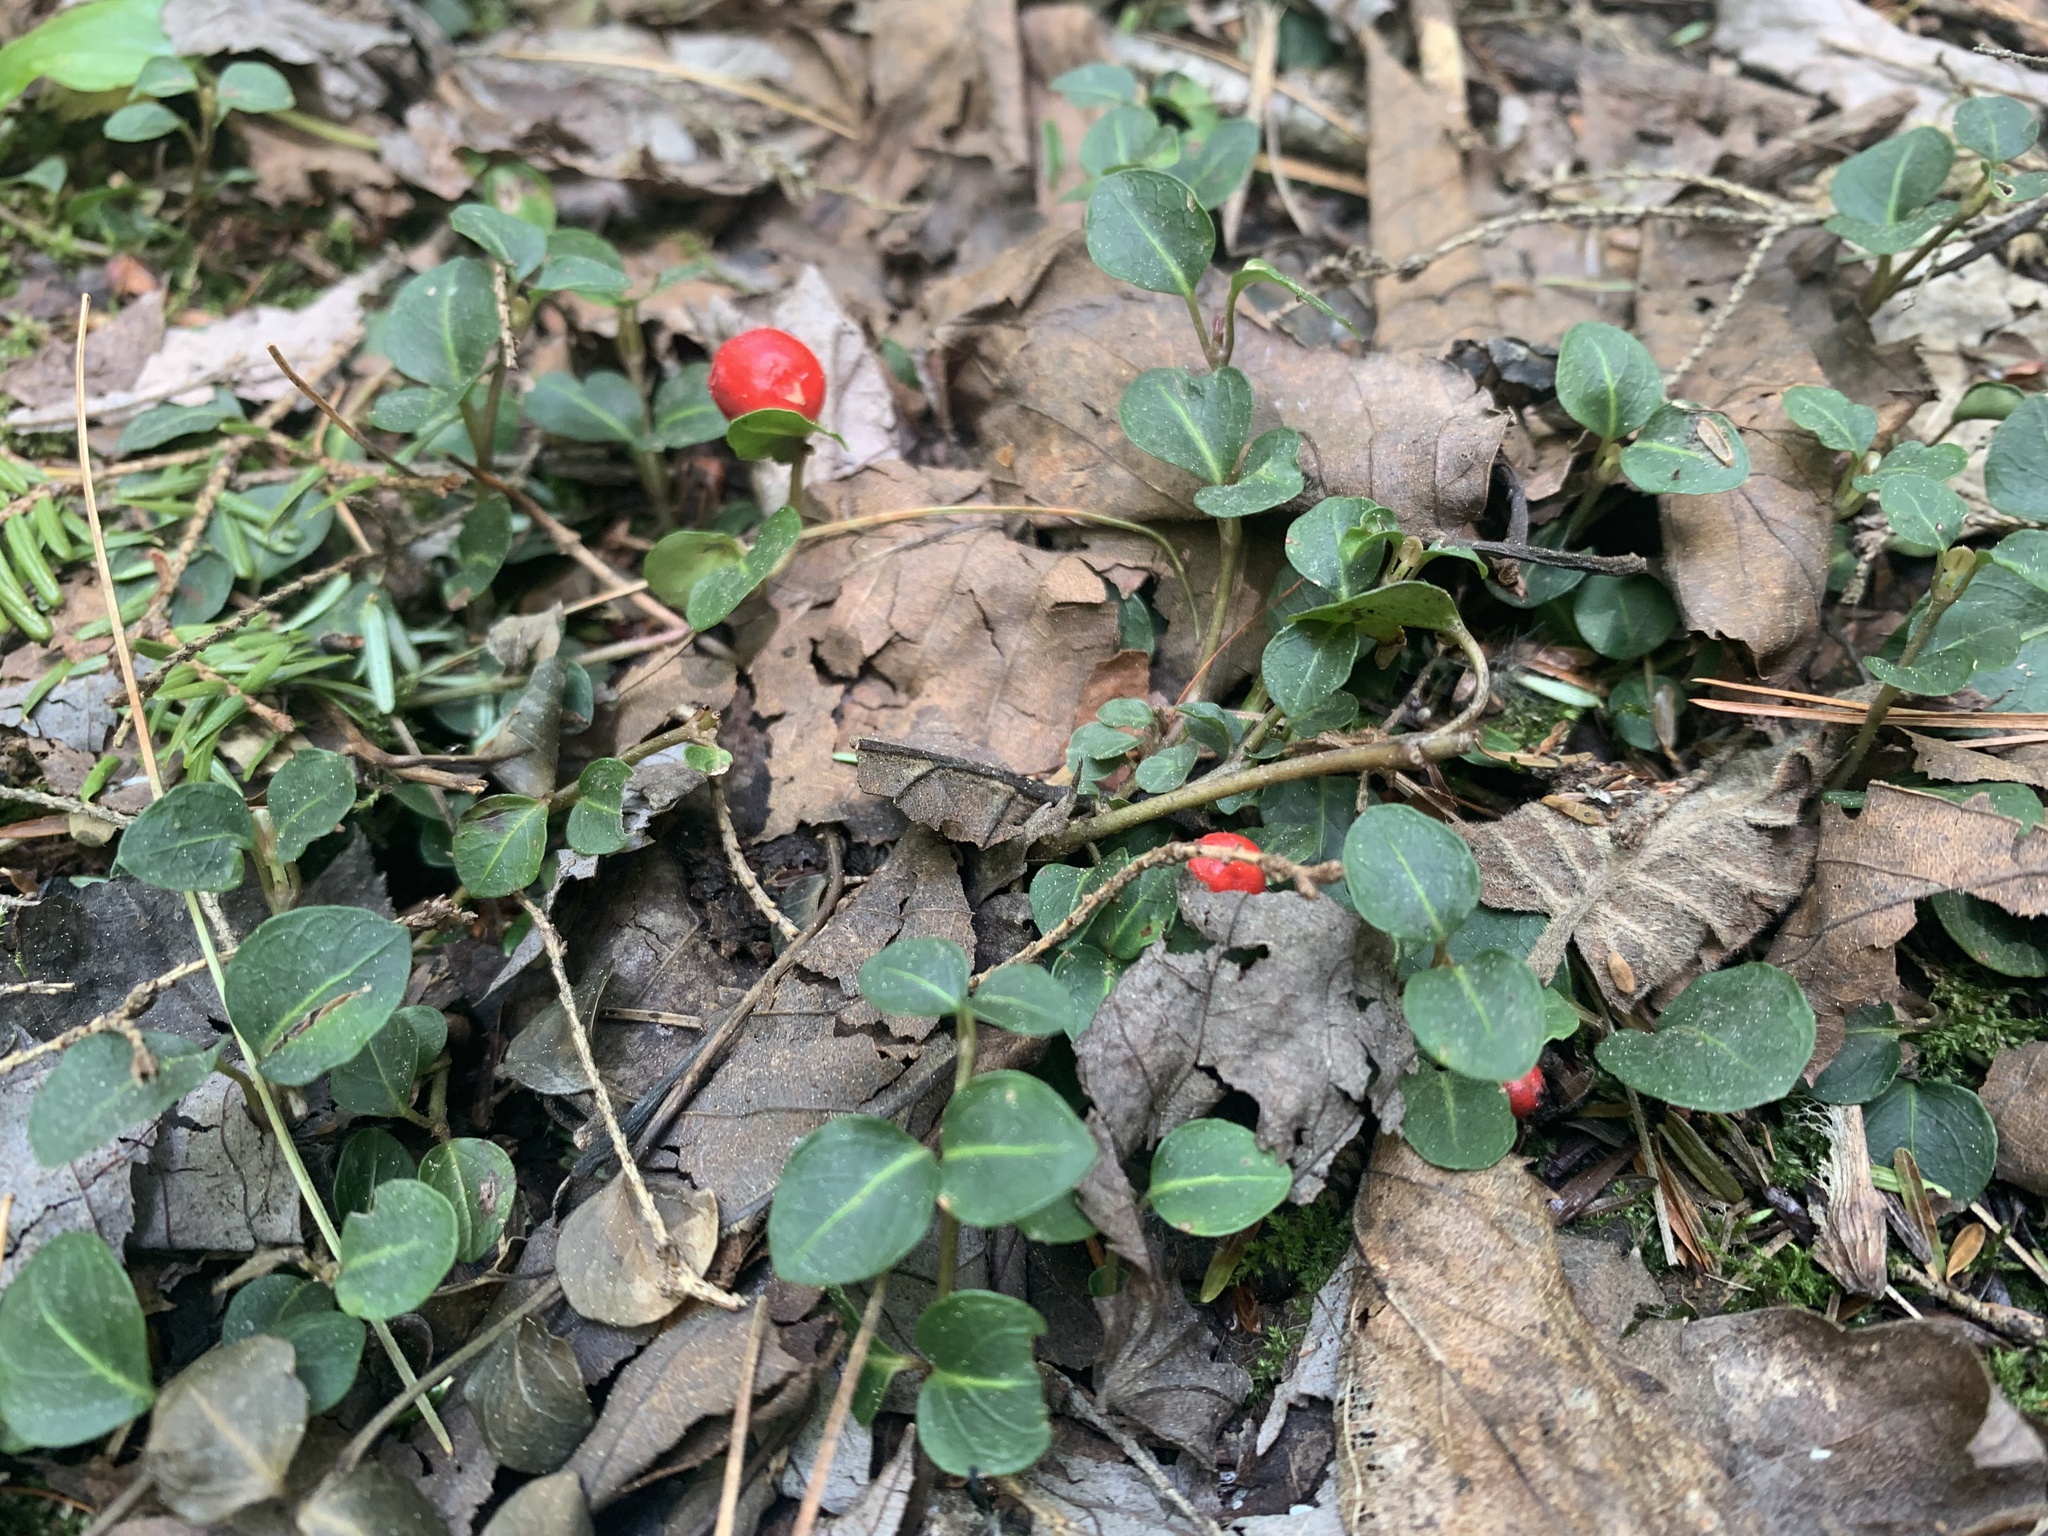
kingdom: Plantae
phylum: Tracheophyta
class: Magnoliopsida
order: Gentianales
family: Rubiaceae
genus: Mitchella
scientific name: Mitchella repens
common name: Partridge-berry
